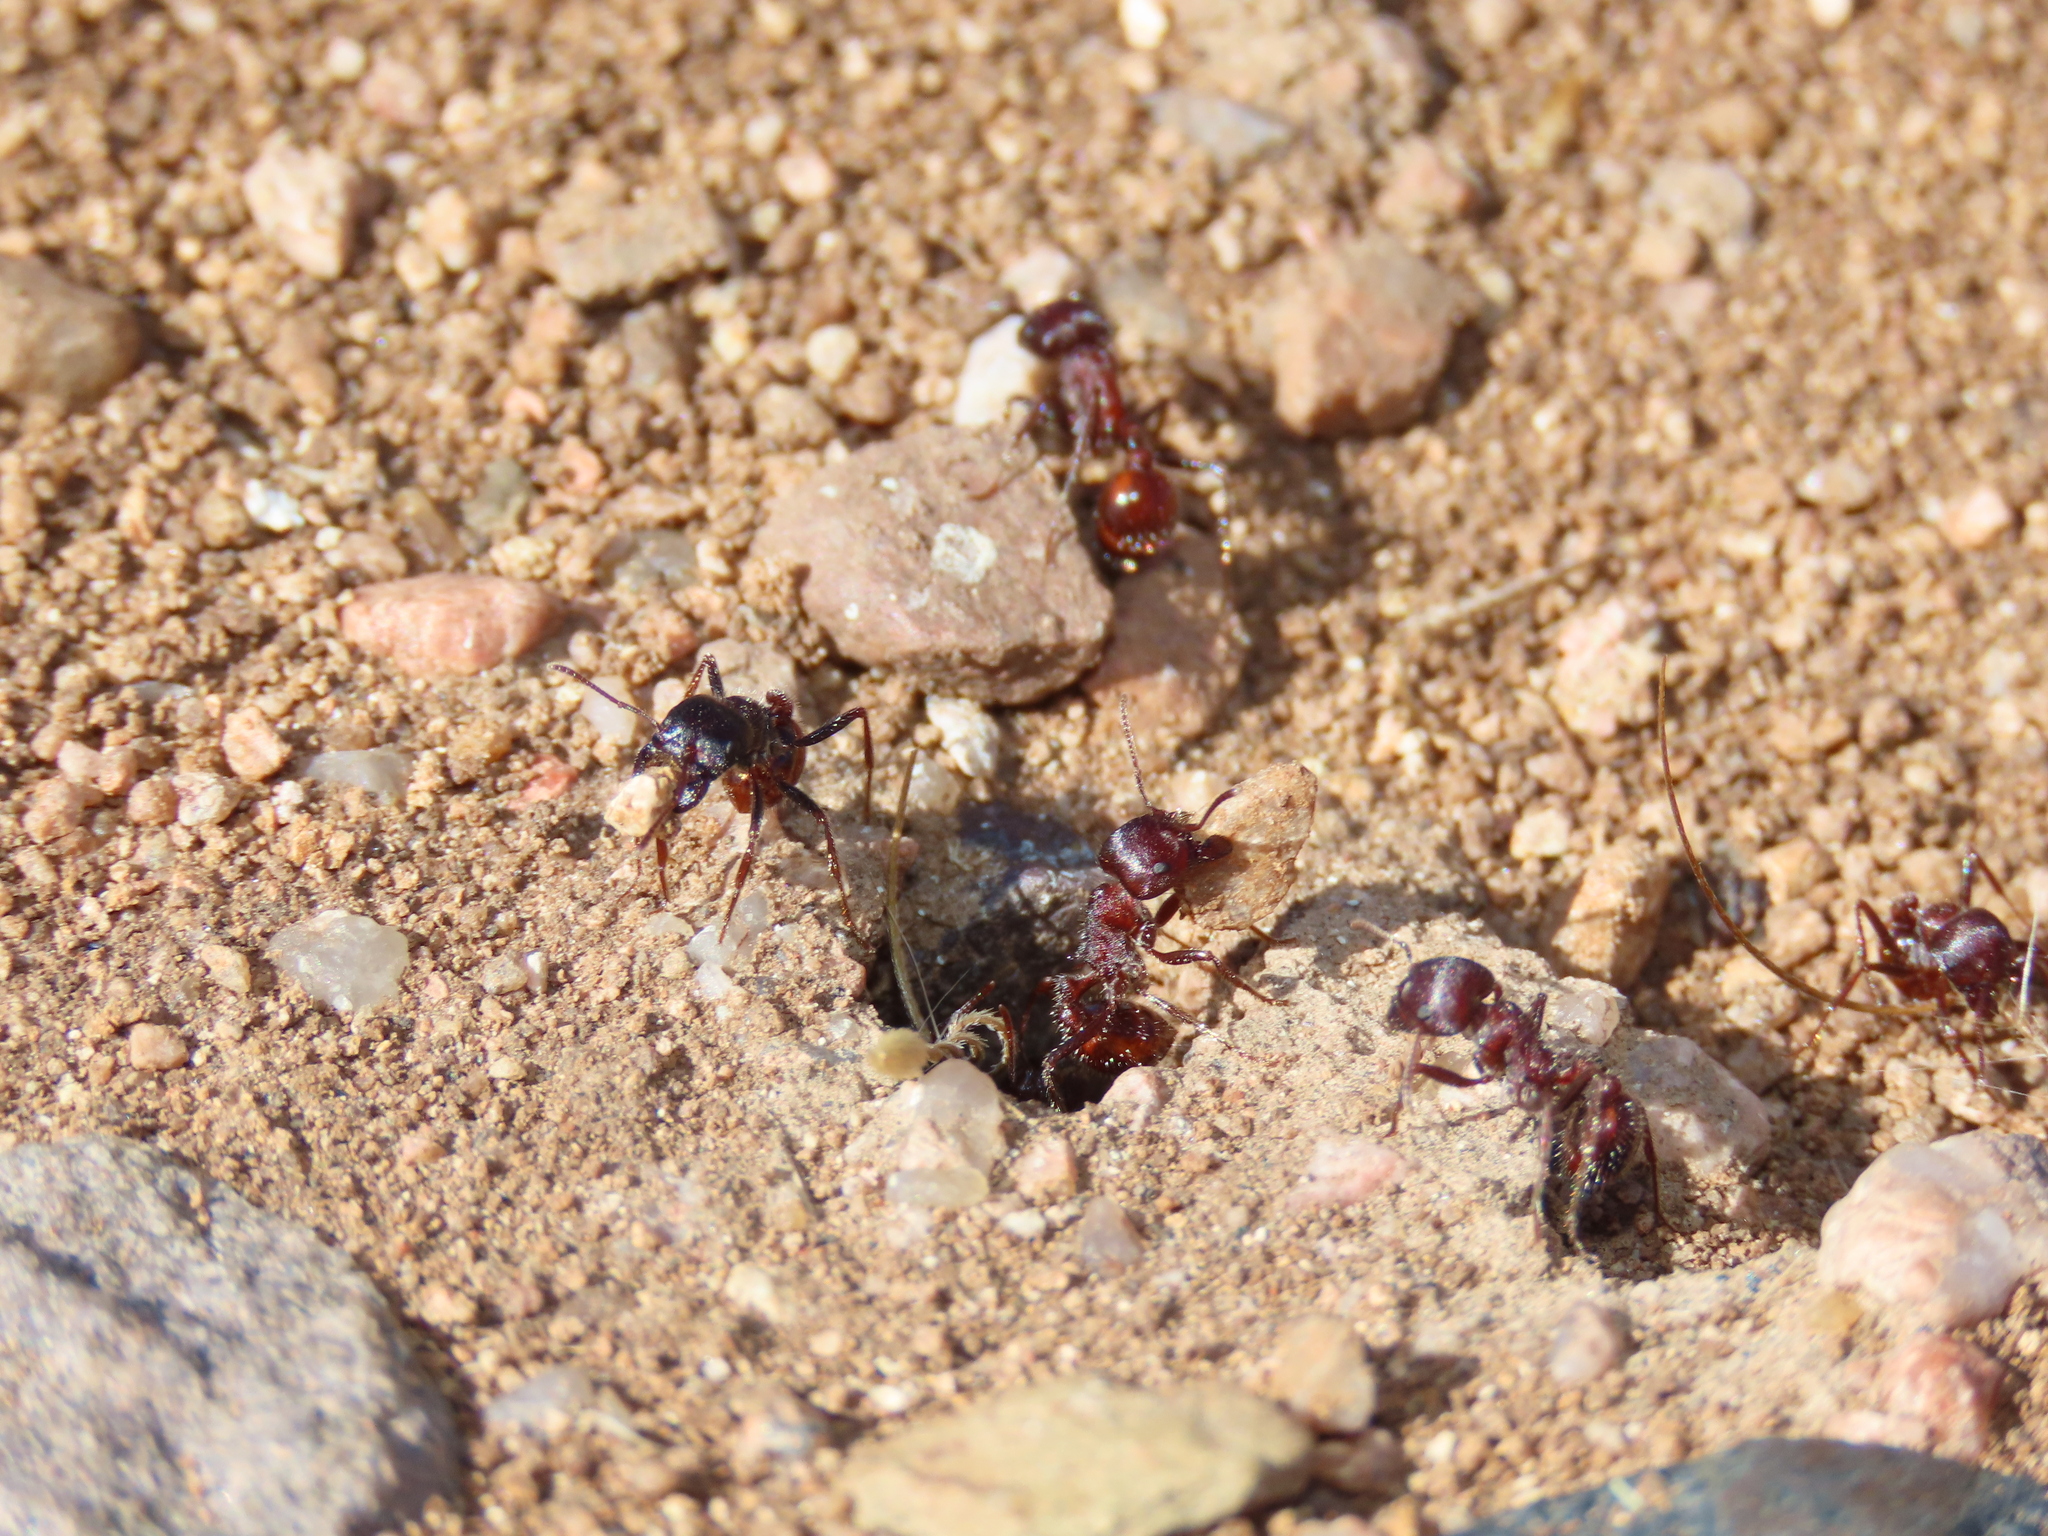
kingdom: Animalia
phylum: Arthropoda
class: Insecta
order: Hymenoptera
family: Formicidae
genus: Pogonomyrmex
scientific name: Pogonomyrmex rugosus
